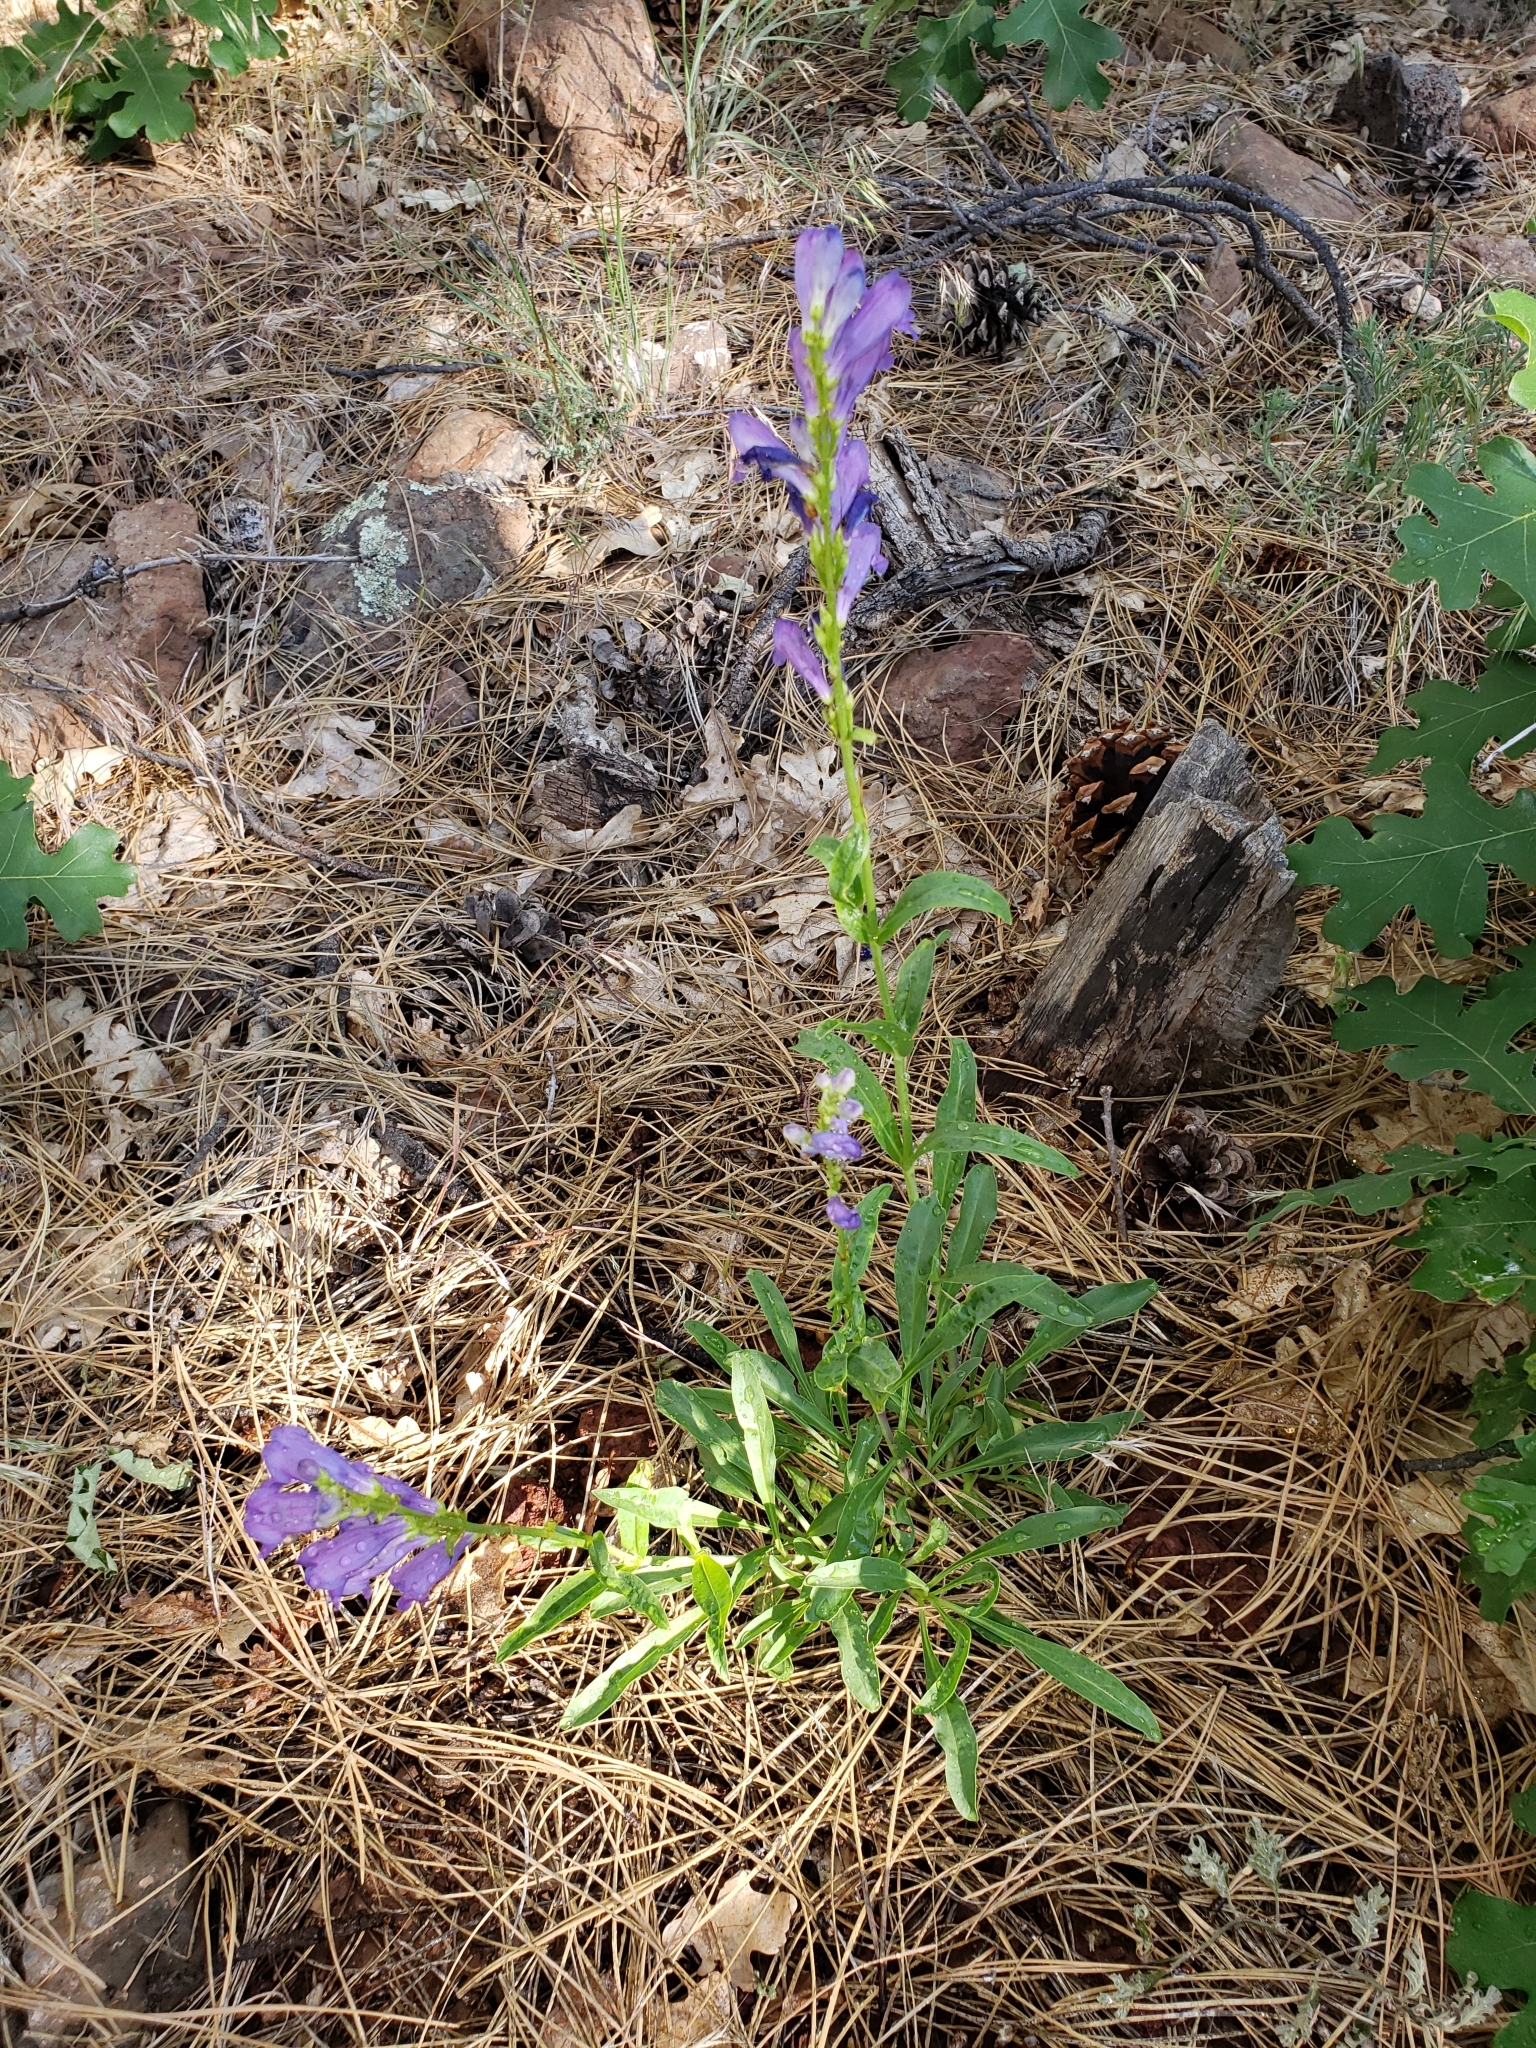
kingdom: Plantae
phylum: Tracheophyta
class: Magnoliopsida
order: Lamiales
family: Plantaginaceae
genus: Penstemon
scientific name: Penstemon strictus
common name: Rocky mountain penstemon
